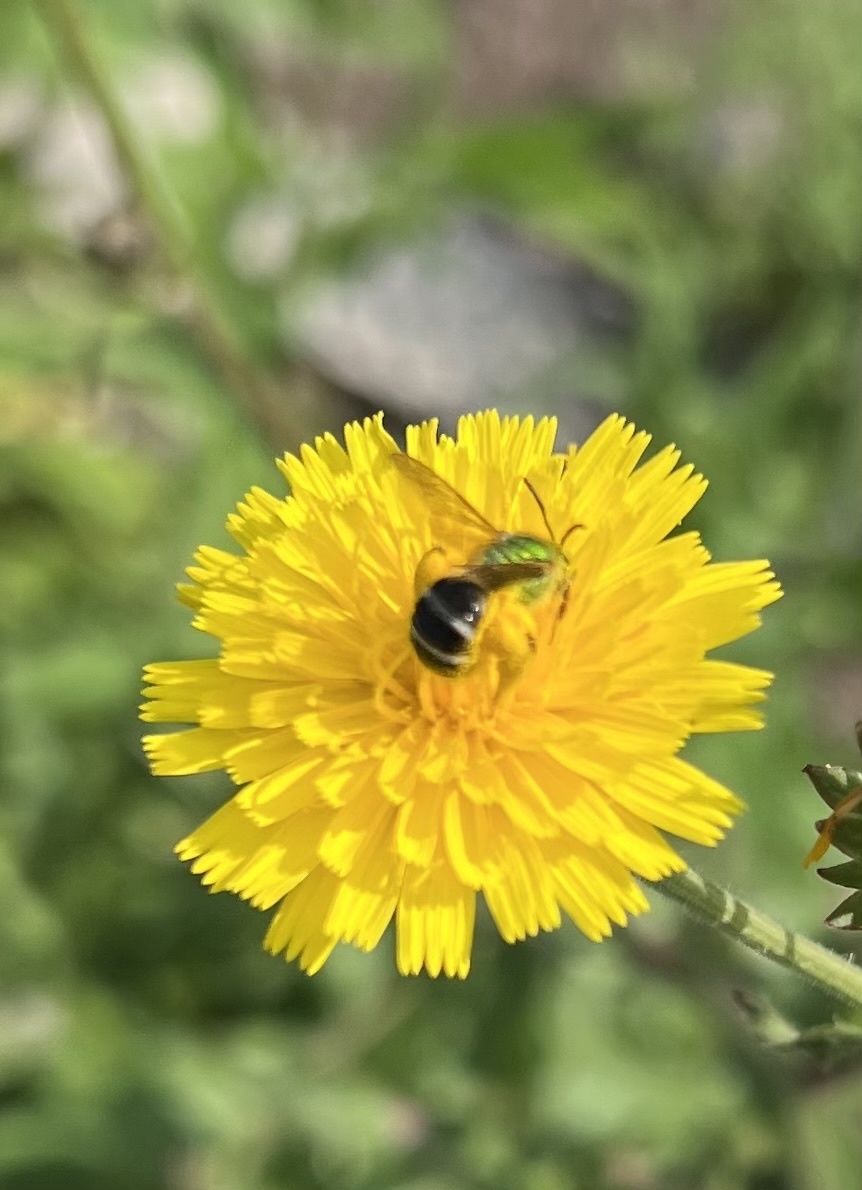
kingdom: Animalia
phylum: Arthropoda
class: Insecta
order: Hymenoptera
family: Halictidae
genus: Agapostemon
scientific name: Agapostemon virescens
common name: Bicolored striped sweat bee
